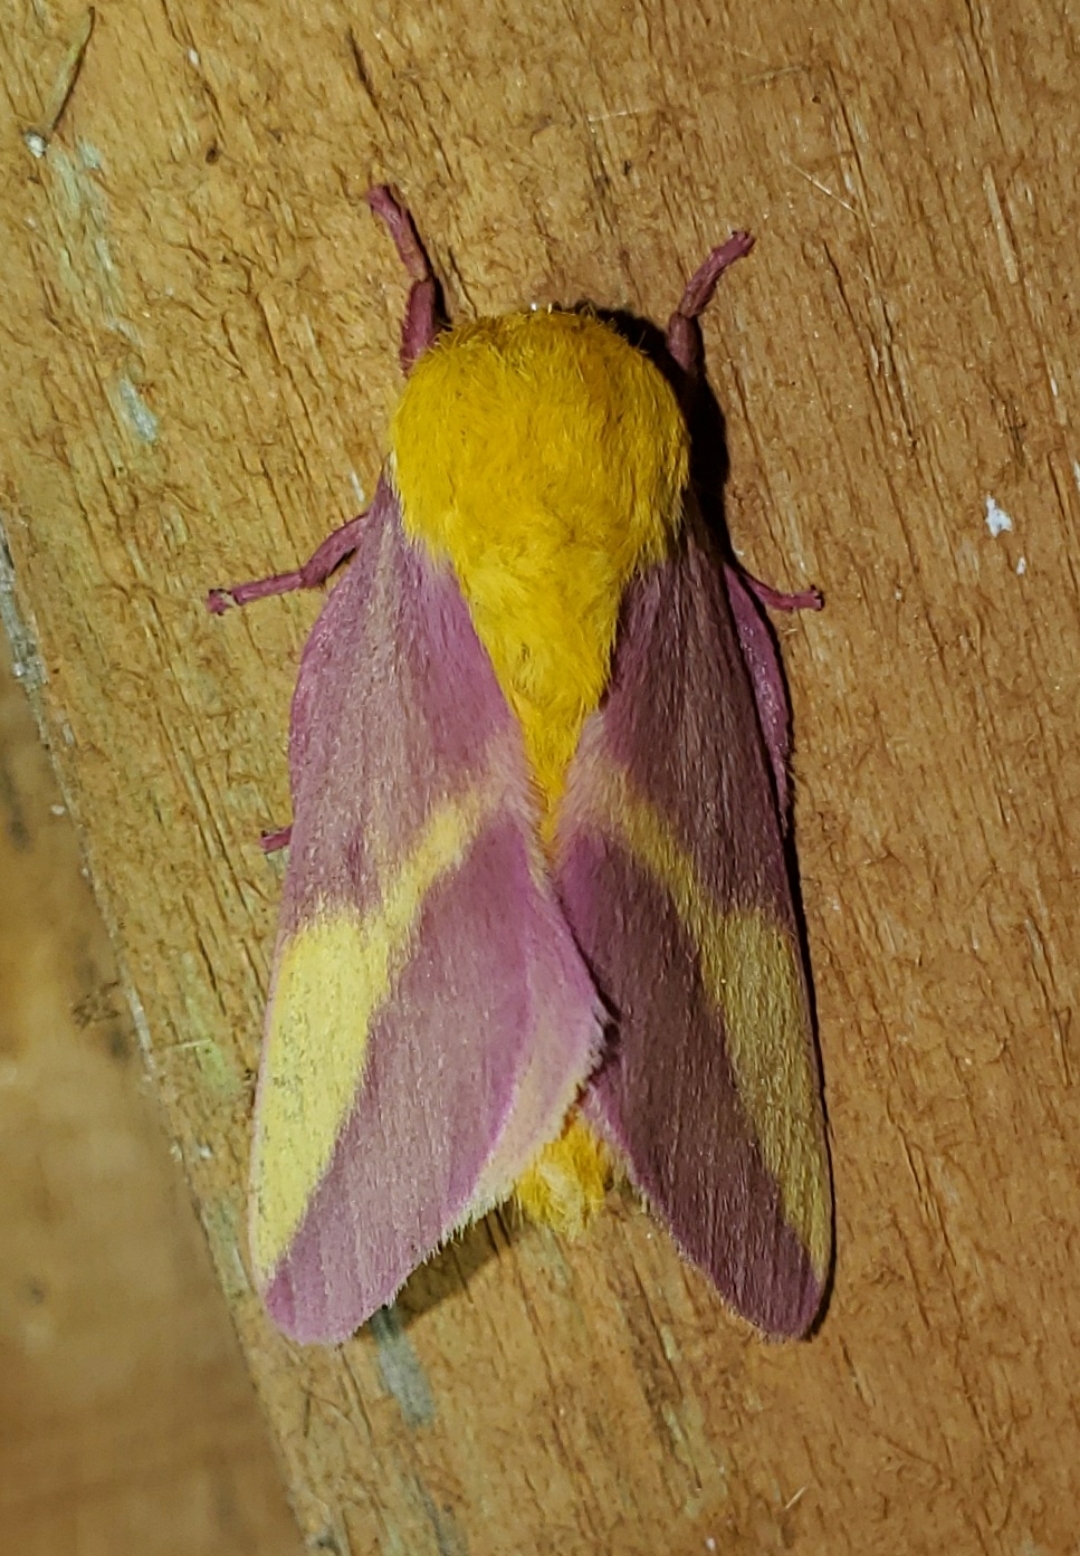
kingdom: Animalia
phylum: Arthropoda
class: Insecta
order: Lepidoptera
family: Saturniidae
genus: Dryocampa
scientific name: Dryocampa rubicunda
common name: Rosy maple moth
